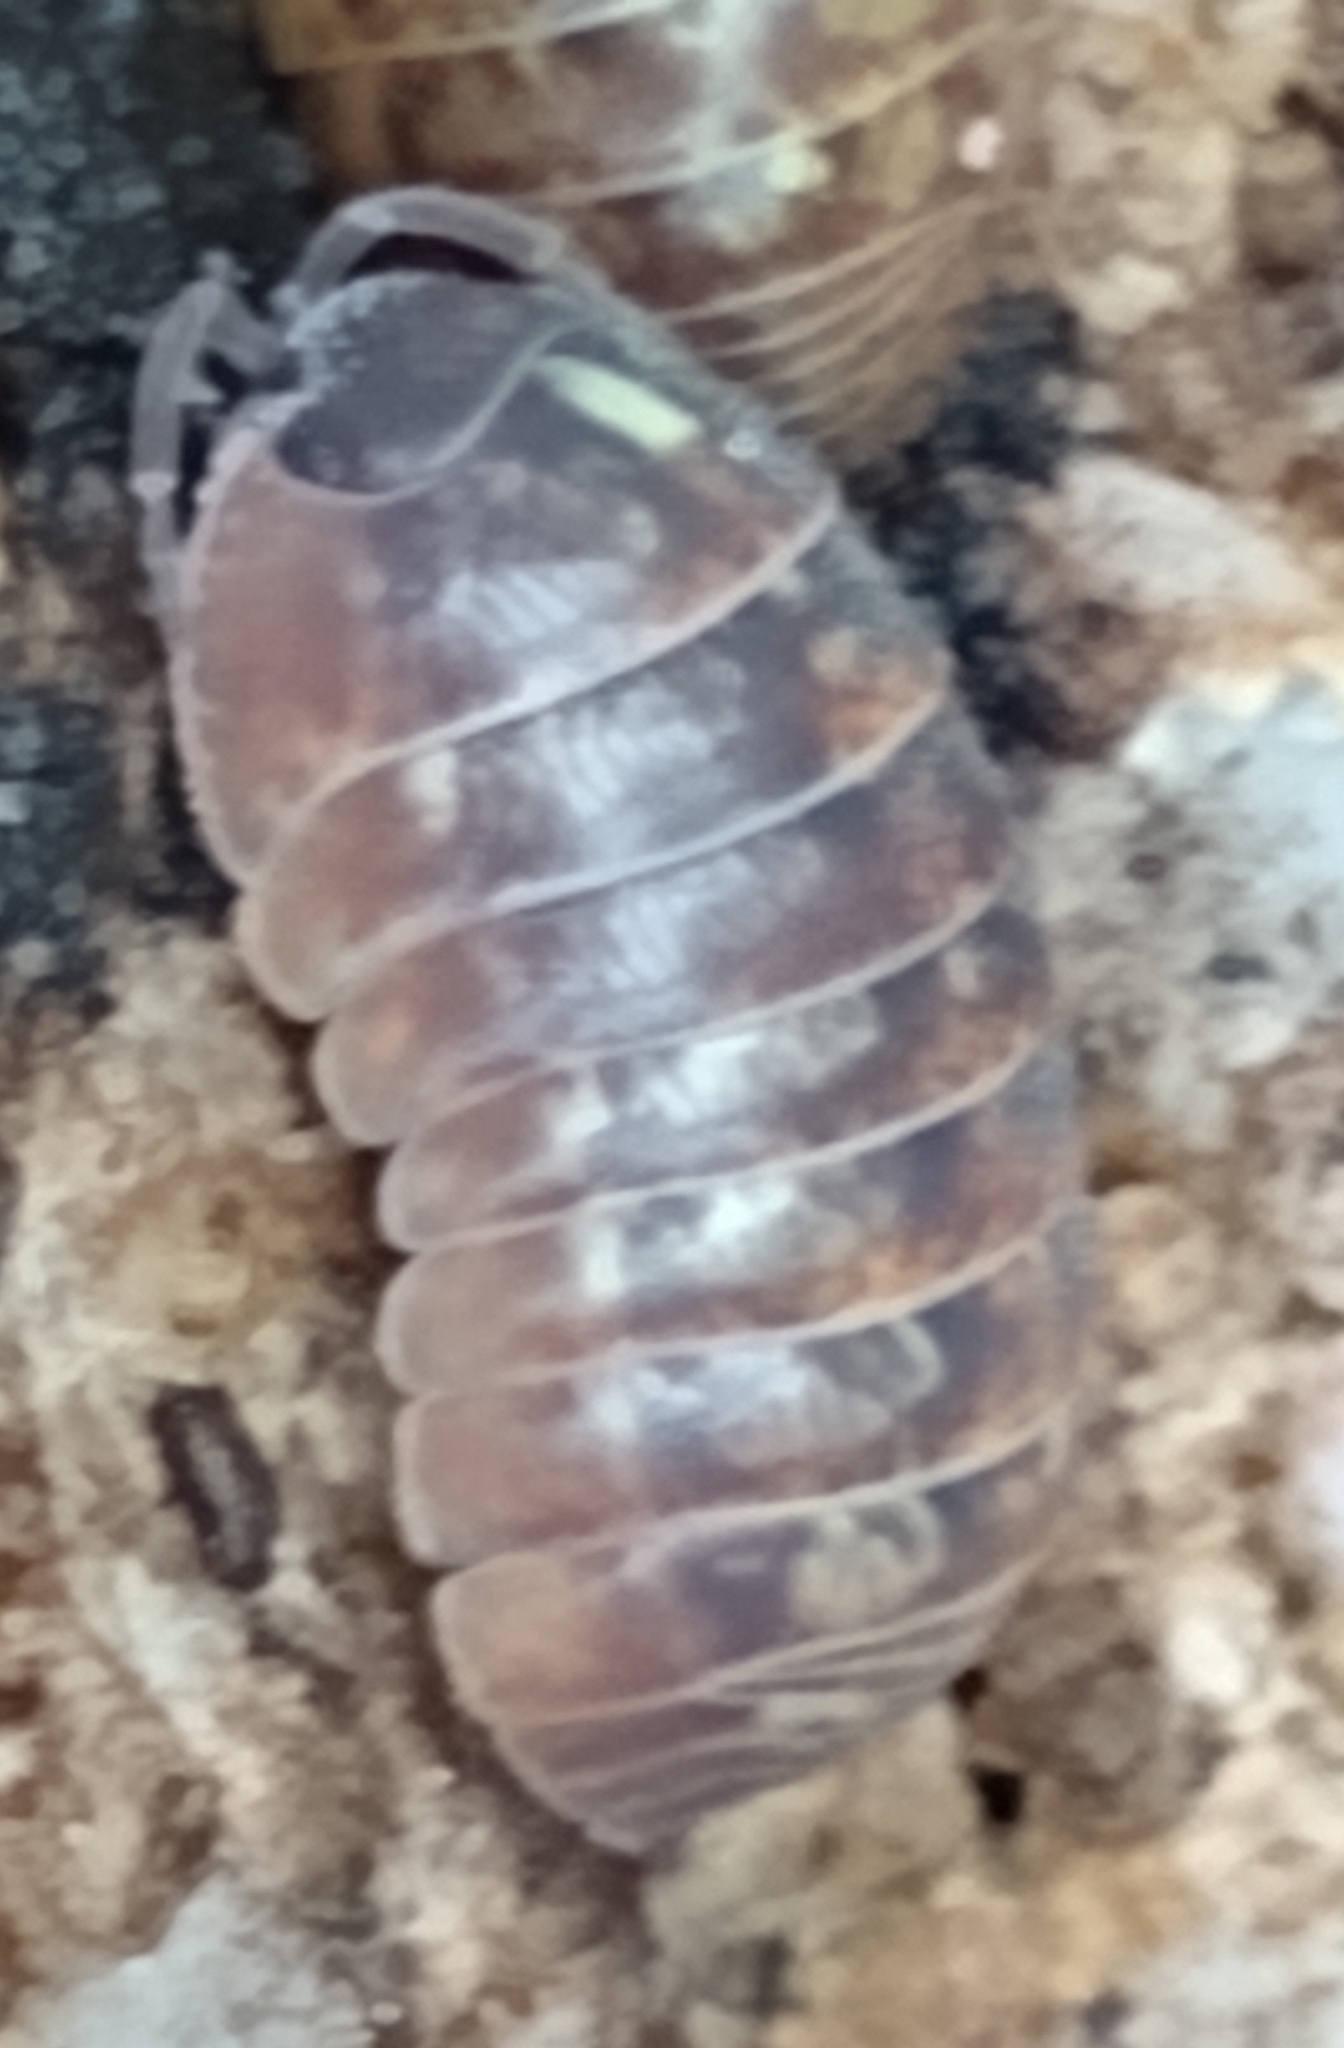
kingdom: Animalia
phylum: Arthropoda
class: Malacostraca
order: Isopoda
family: Armadillidiidae
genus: Armadillidium
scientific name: Armadillidium vulgare
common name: Common pill woodlouse
